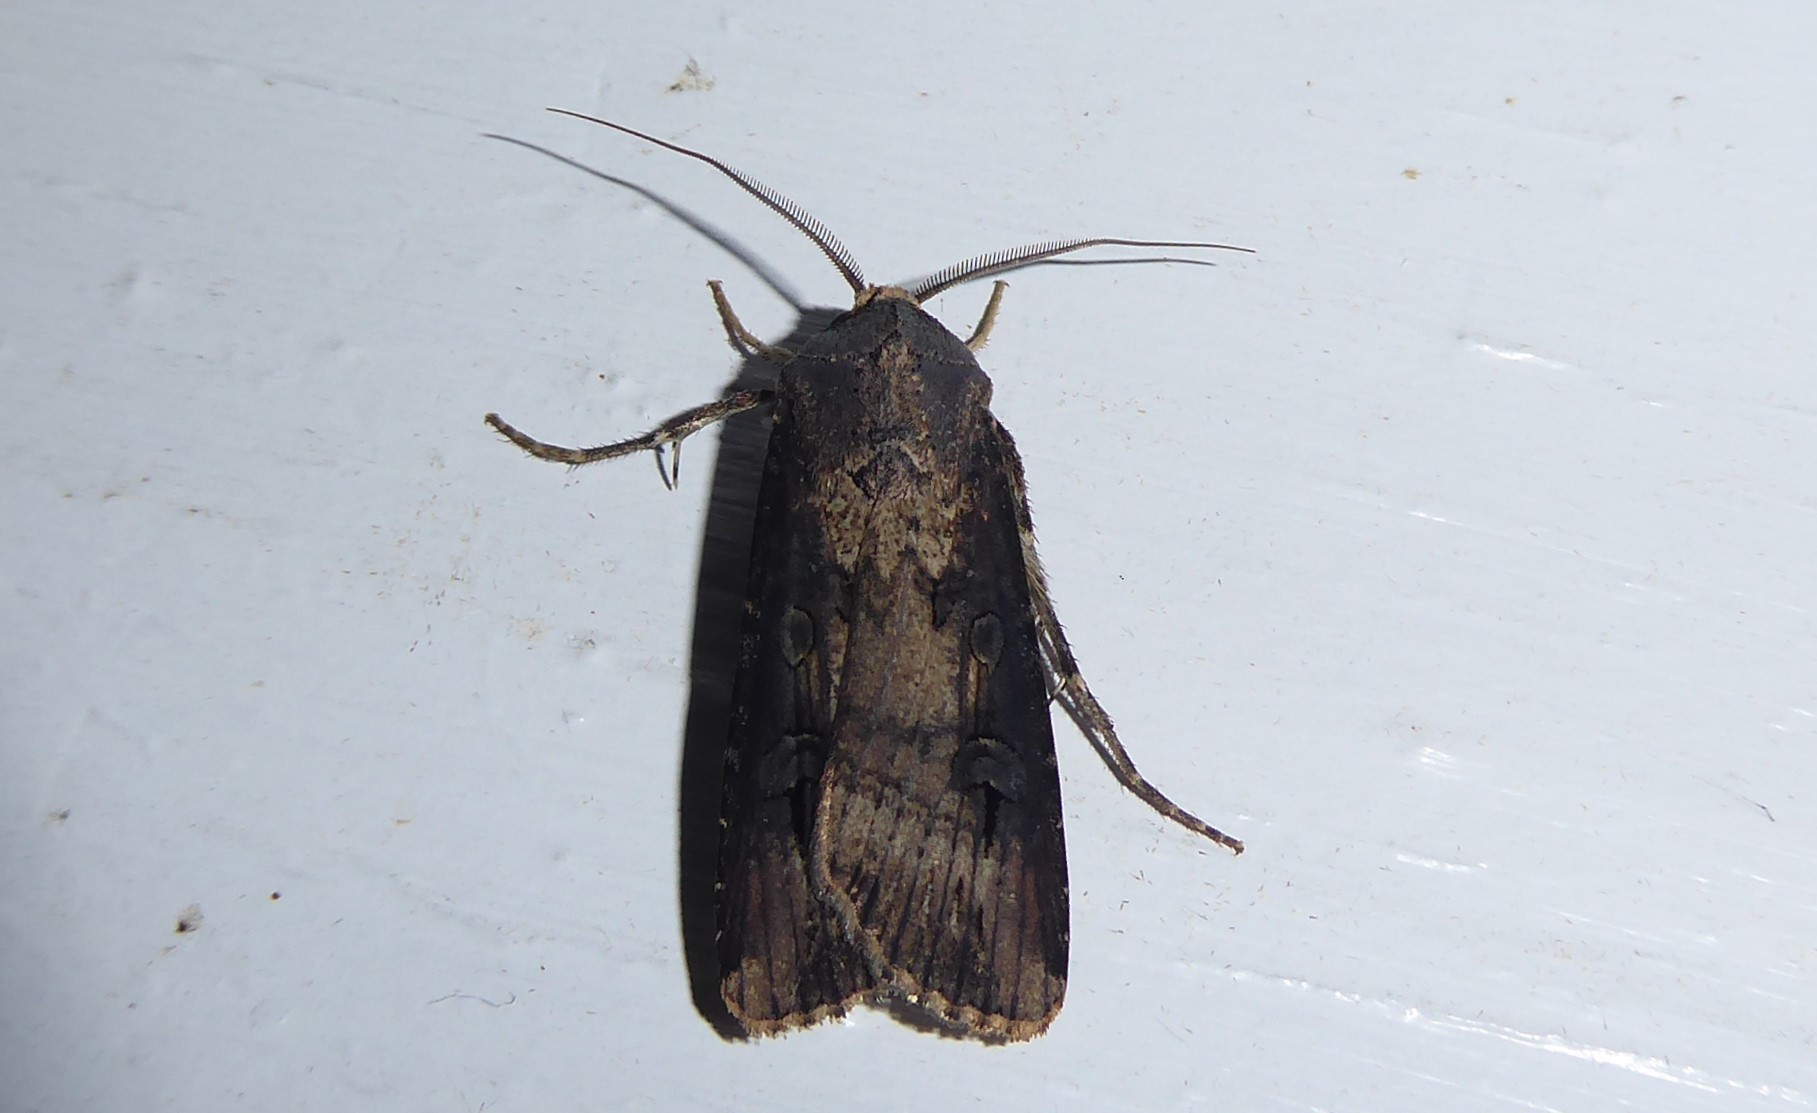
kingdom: Animalia
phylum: Arthropoda
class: Insecta
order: Lepidoptera
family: Noctuidae
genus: Agrotis
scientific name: Agrotis ipsilon
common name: Dark sword-grass
